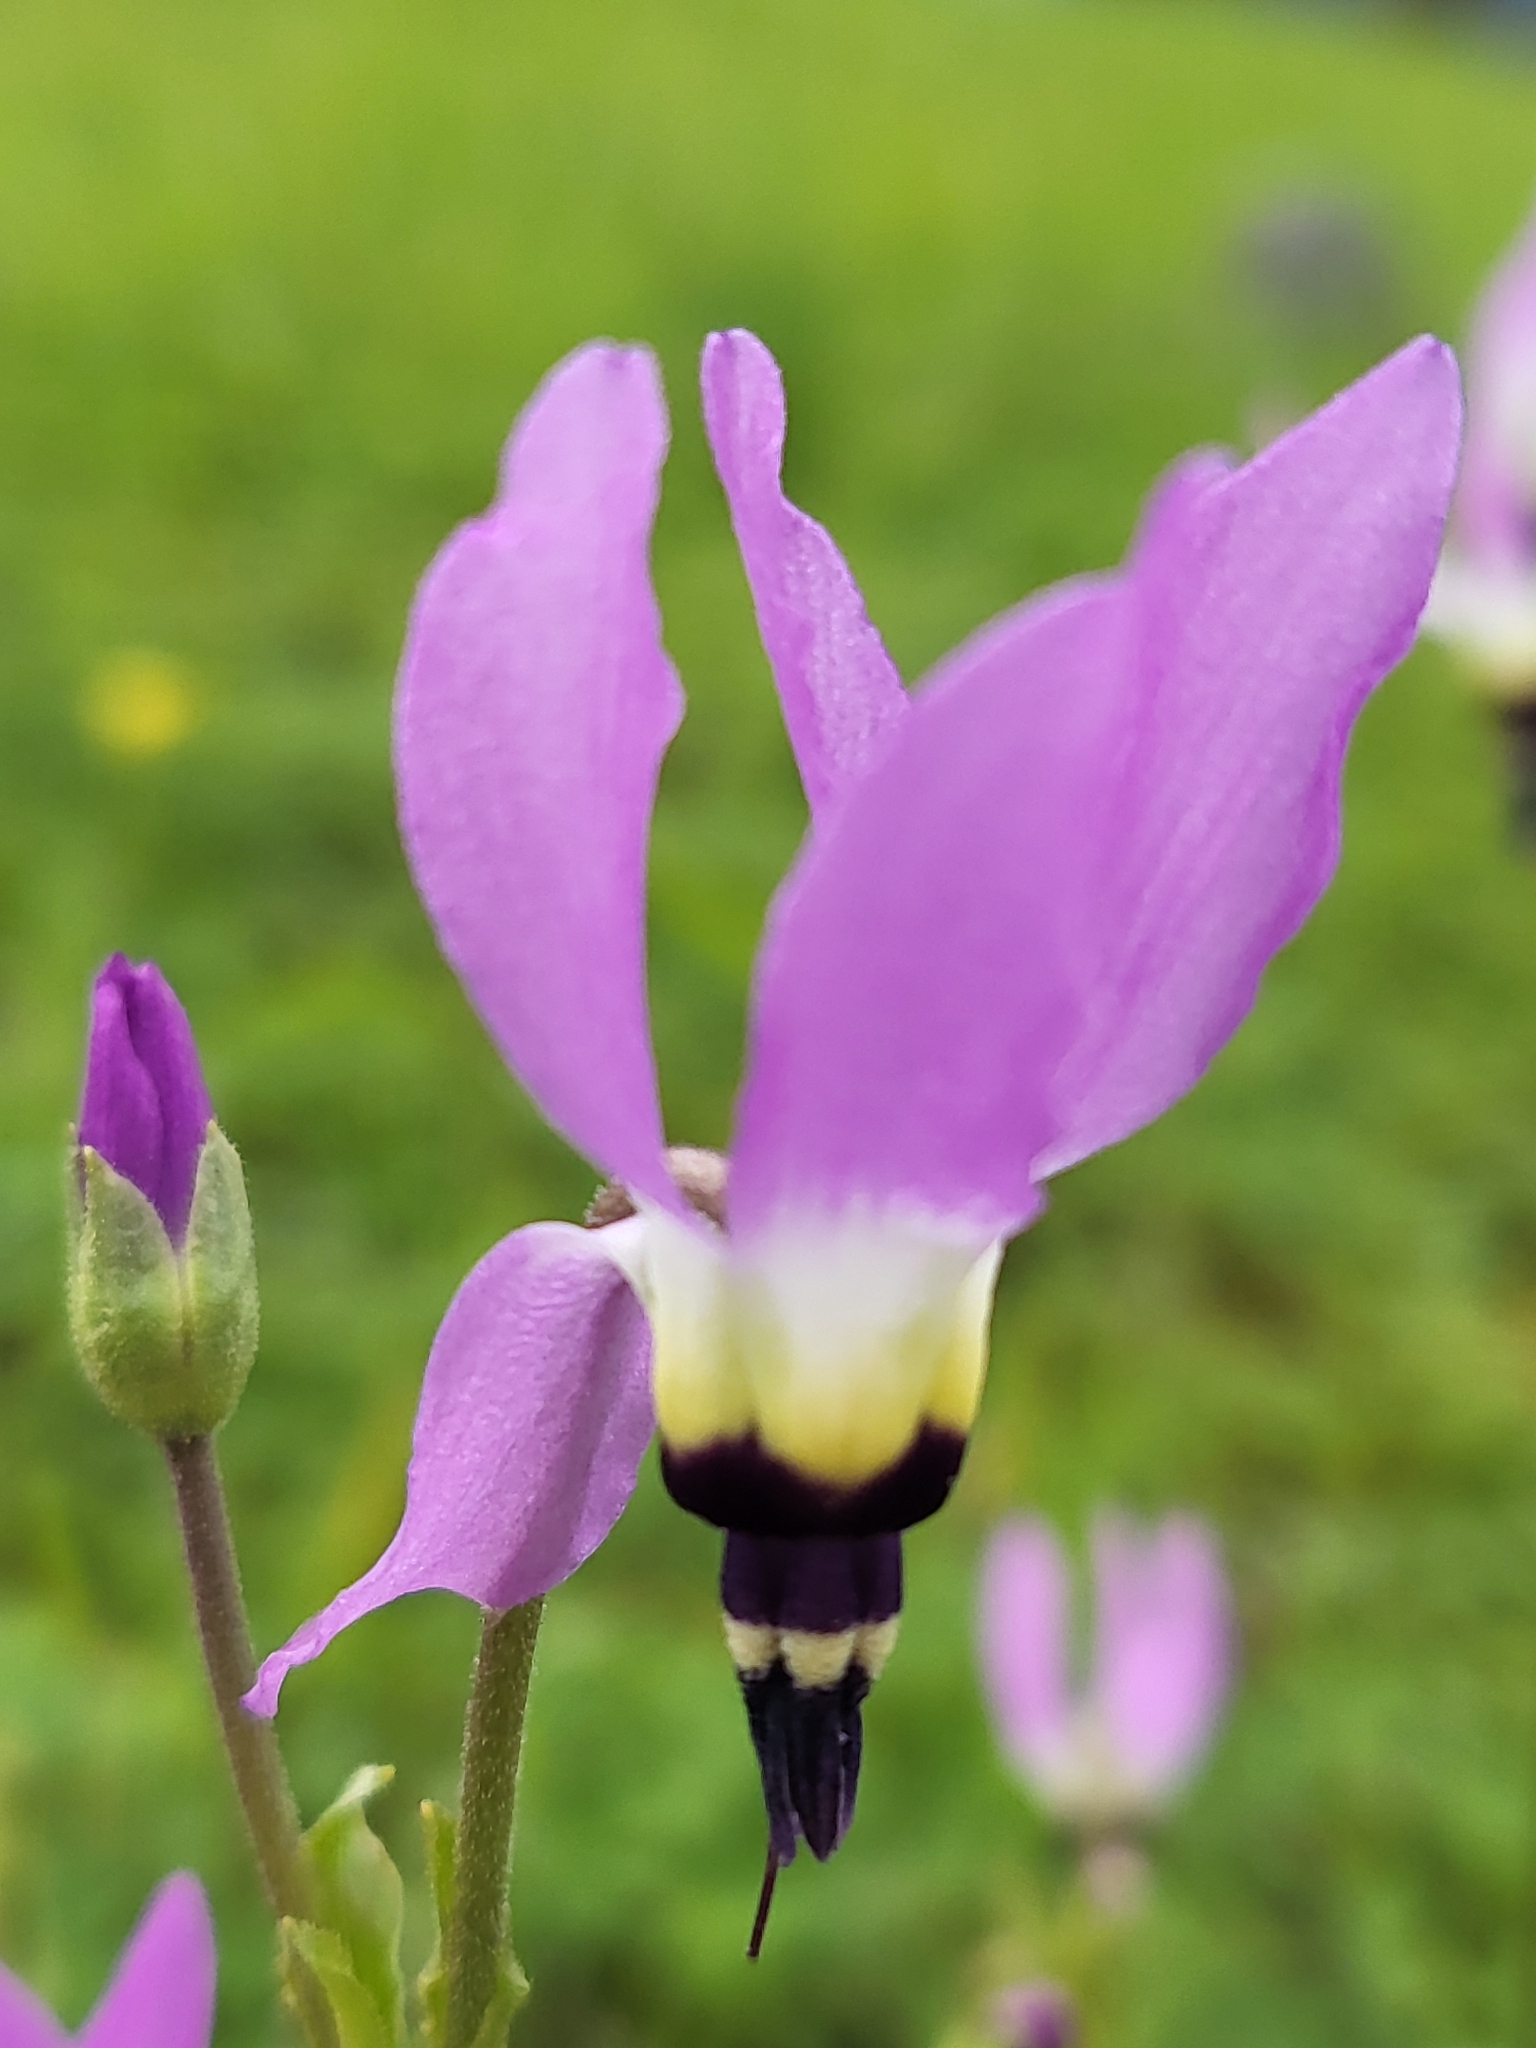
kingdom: Plantae
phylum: Tracheophyta
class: Magnoliopsida
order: Ericales
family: Primulaceae
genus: Dodecatheon
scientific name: Dodecatheon clevelandii
